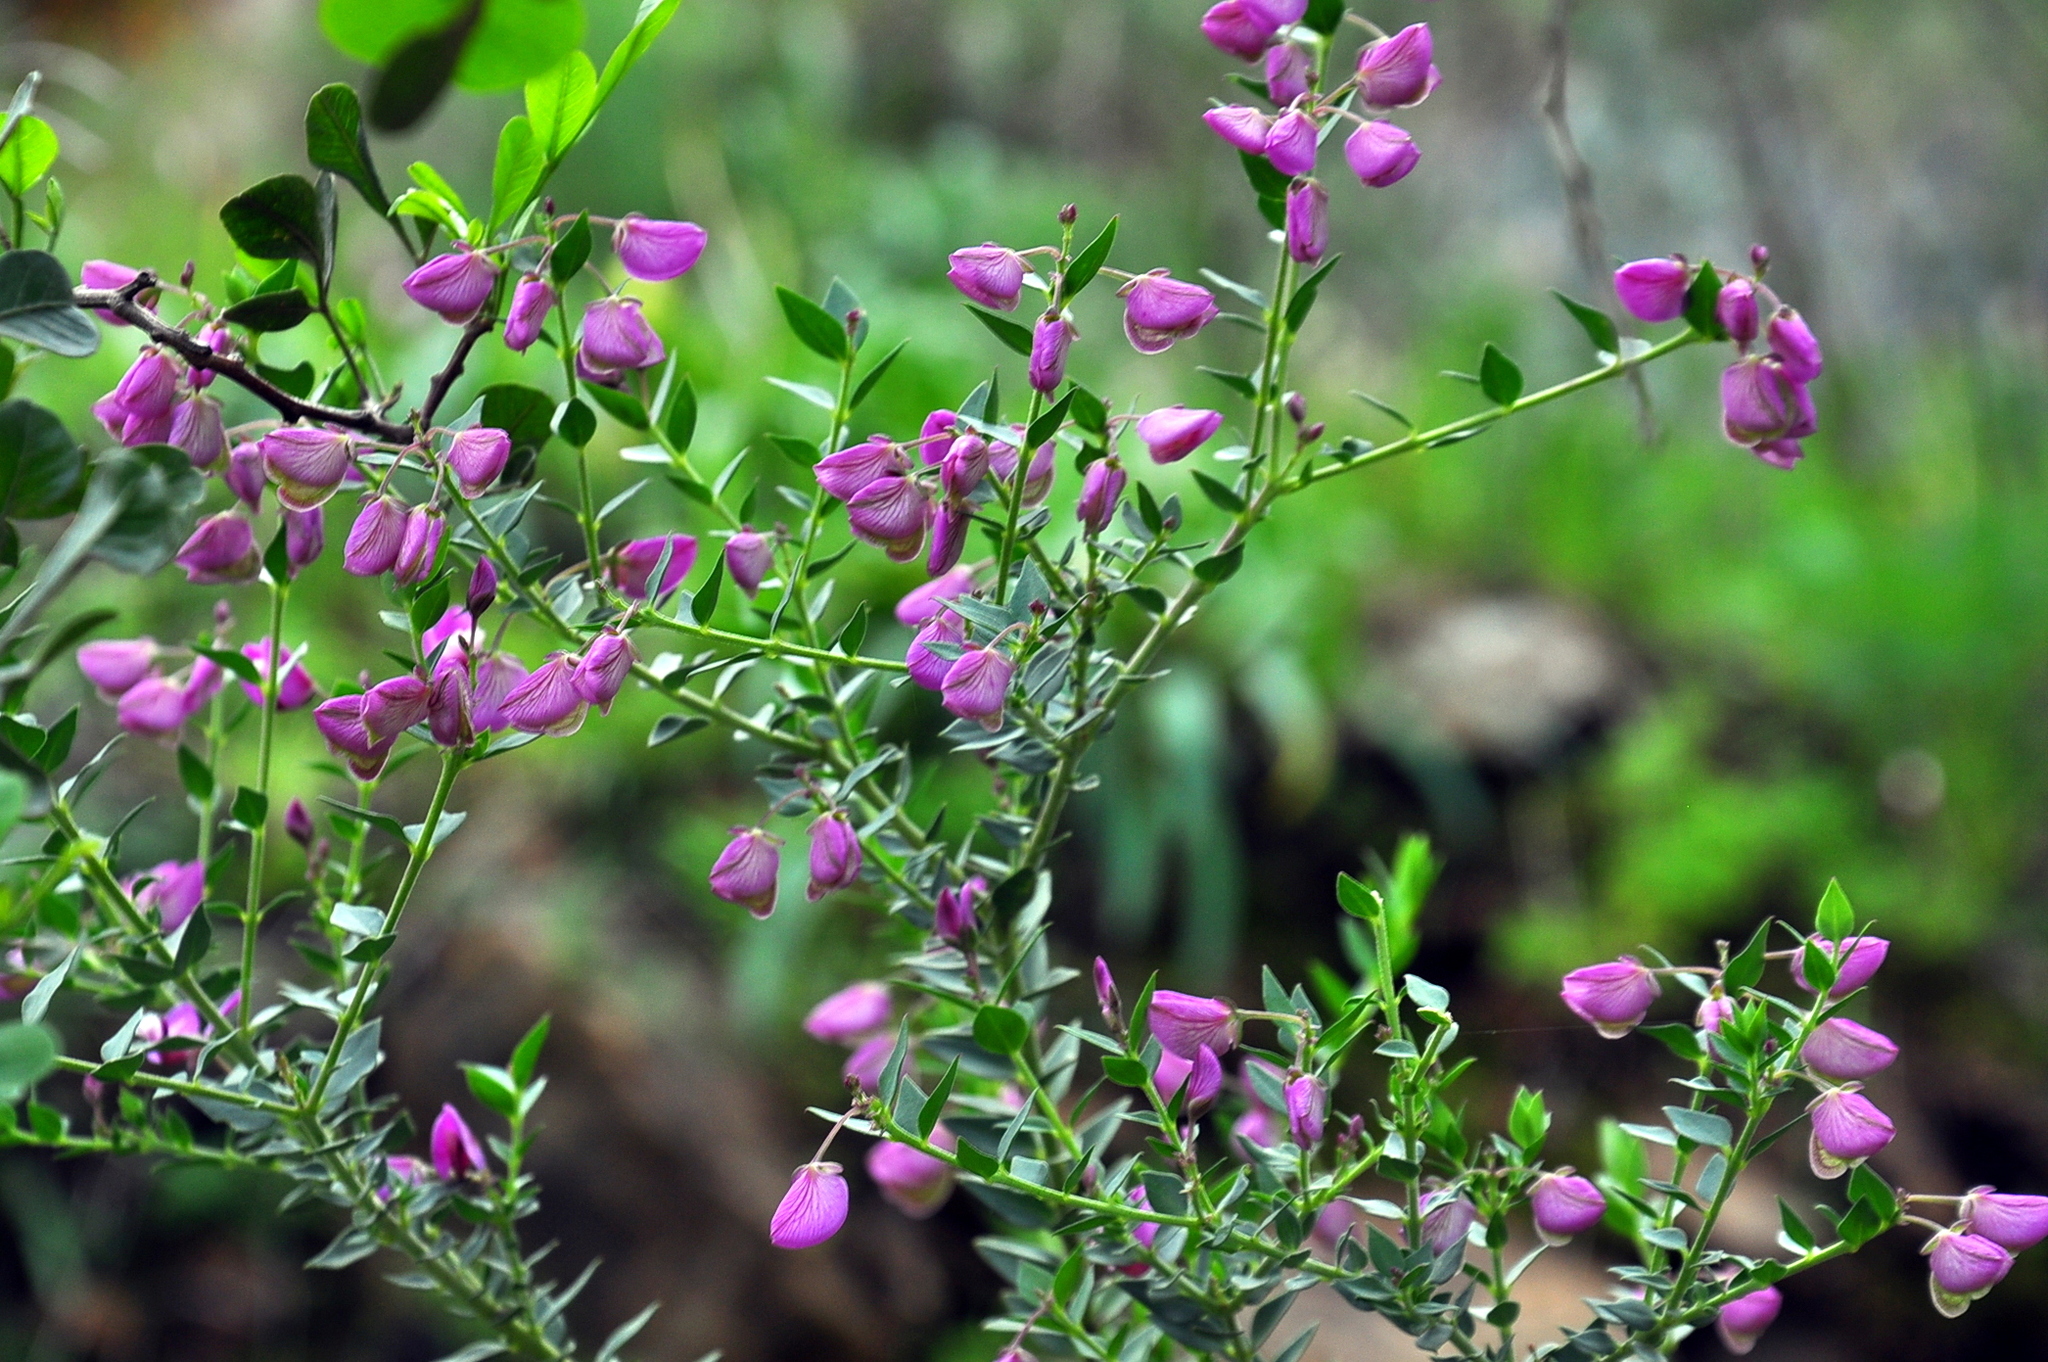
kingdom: Plantae
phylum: Tracheophyta
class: Magnoliopsida
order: Fabales
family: Polygalaceae
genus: Polygala
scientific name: Polygala fruticosa
